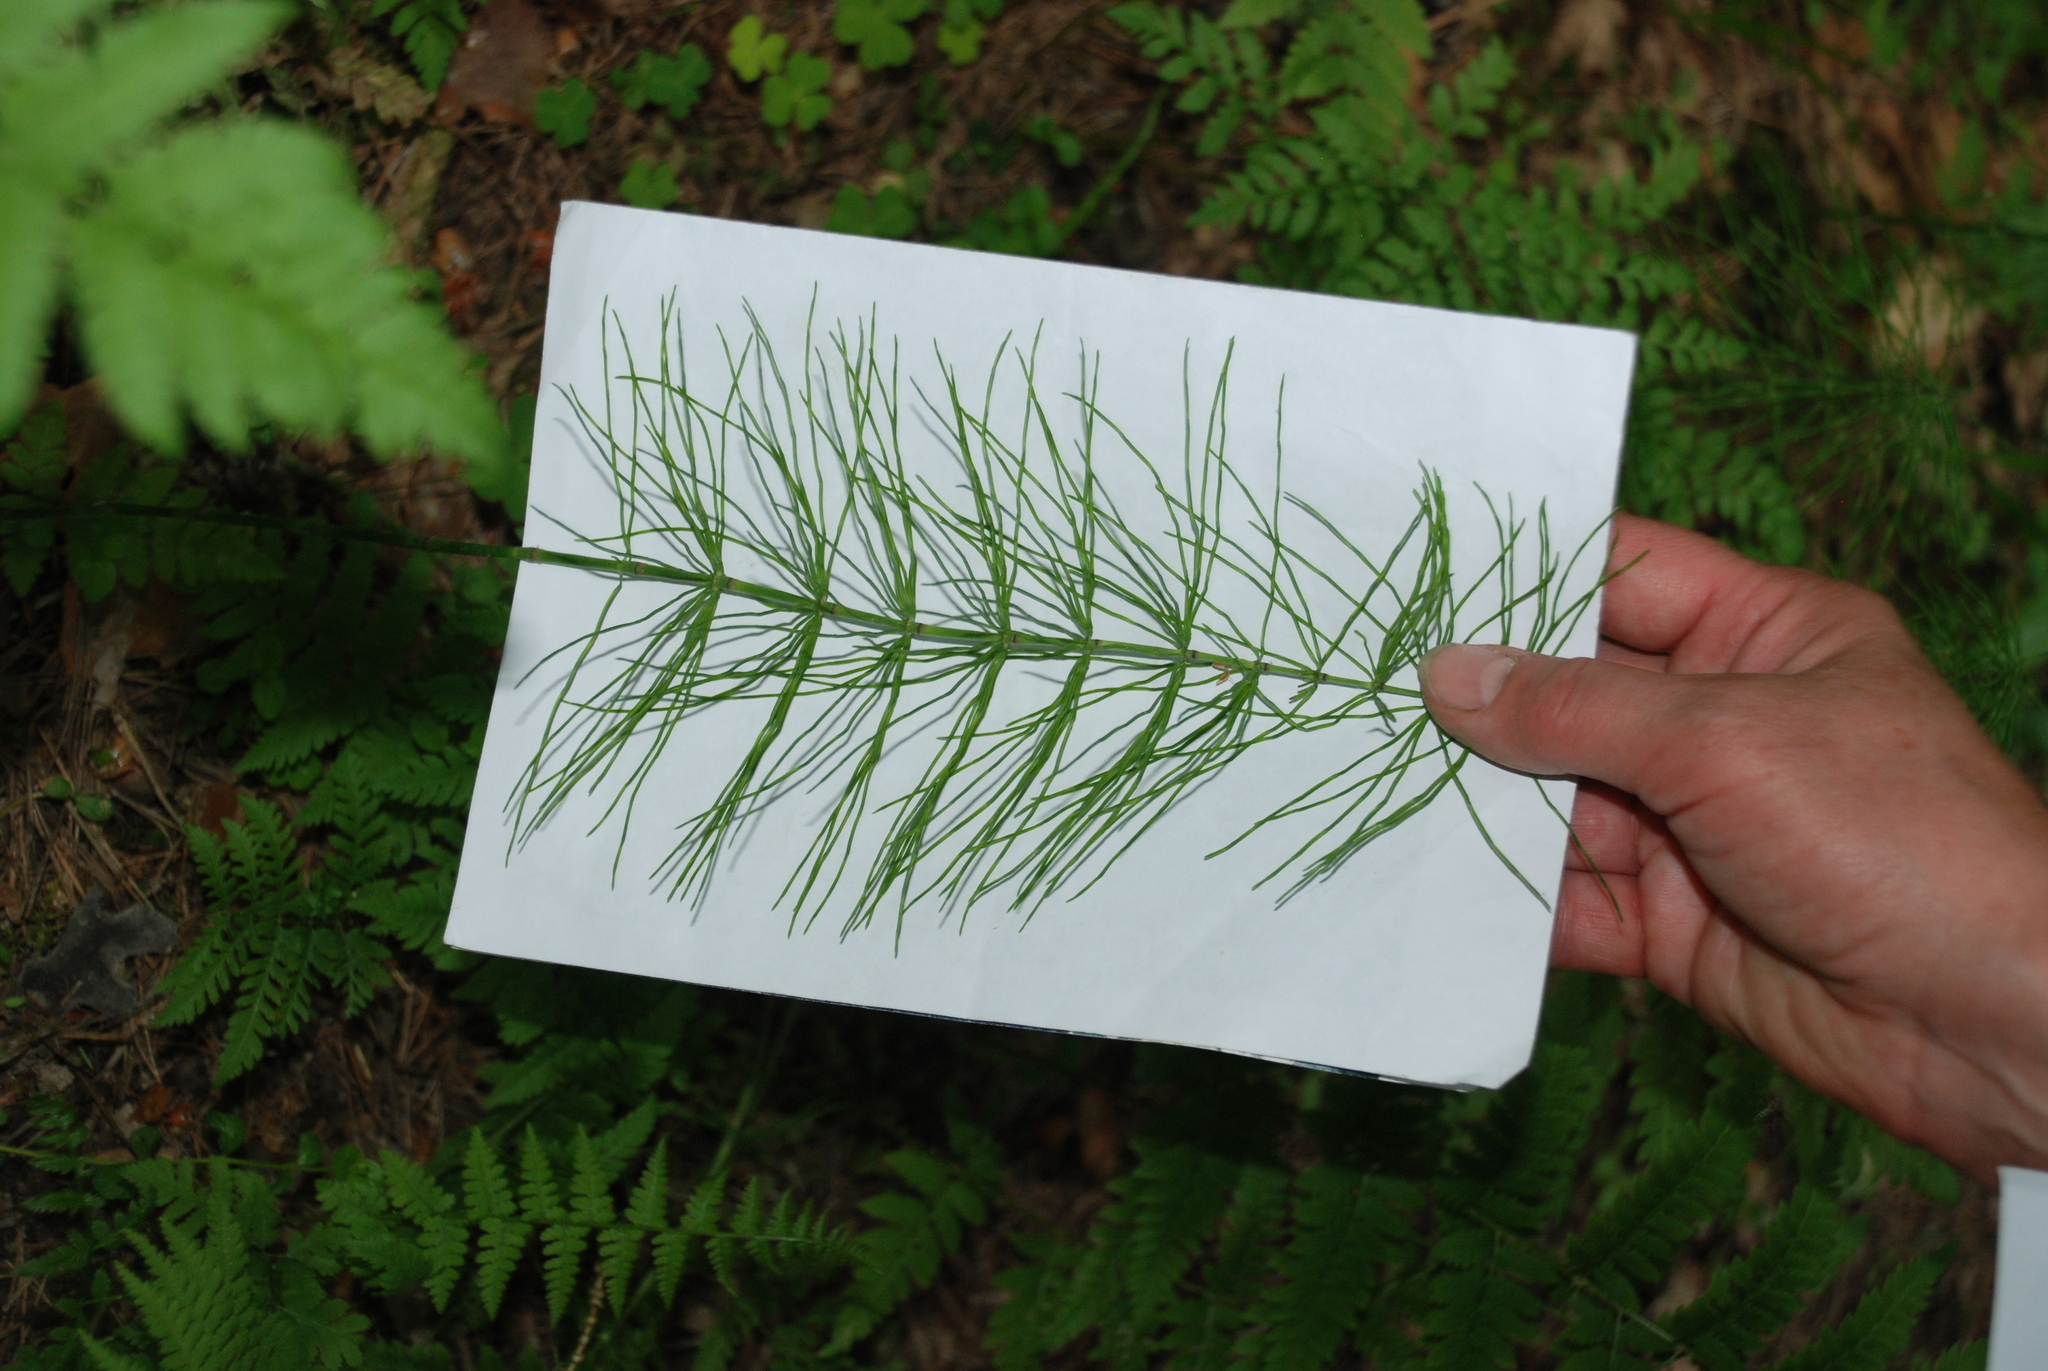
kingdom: Plantae
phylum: Tracheophyta
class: Polypodiopsida
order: Equisetales
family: Equisetaceae
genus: Equisetum
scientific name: Equisetum pratense
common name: Meadow horsetail
